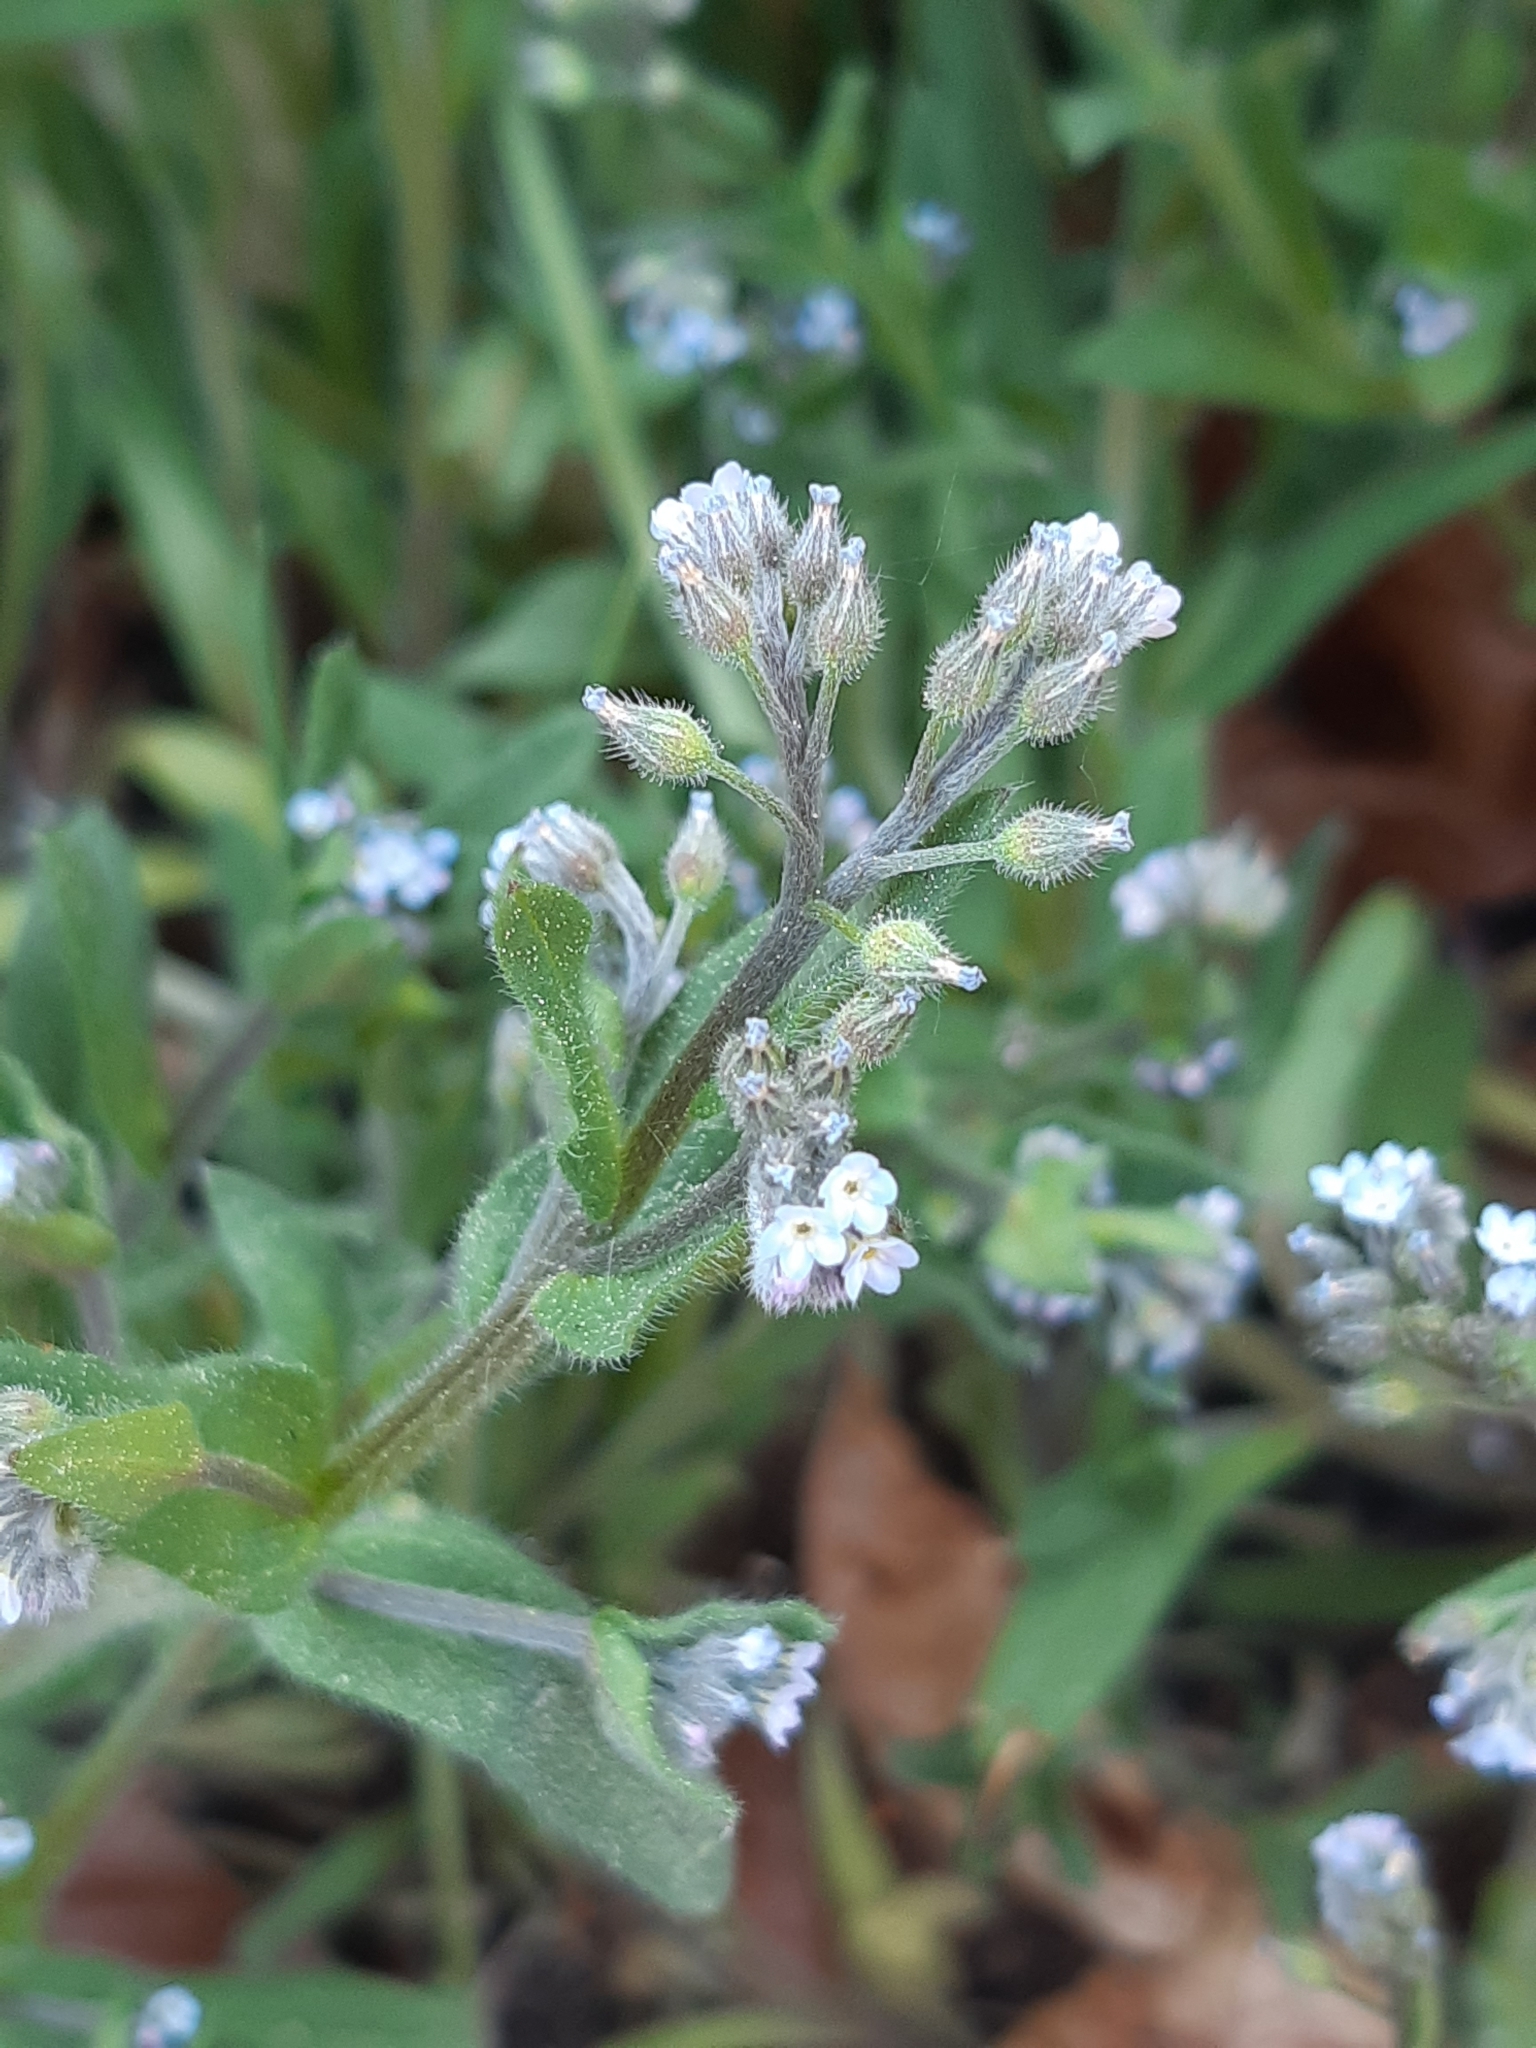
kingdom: Plantae
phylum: Tracheophyta
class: Magnoliopsida
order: Boraginales
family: Boraginaceae
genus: Myosotis
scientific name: Myosotis arvensis
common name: Field forget-me-not
